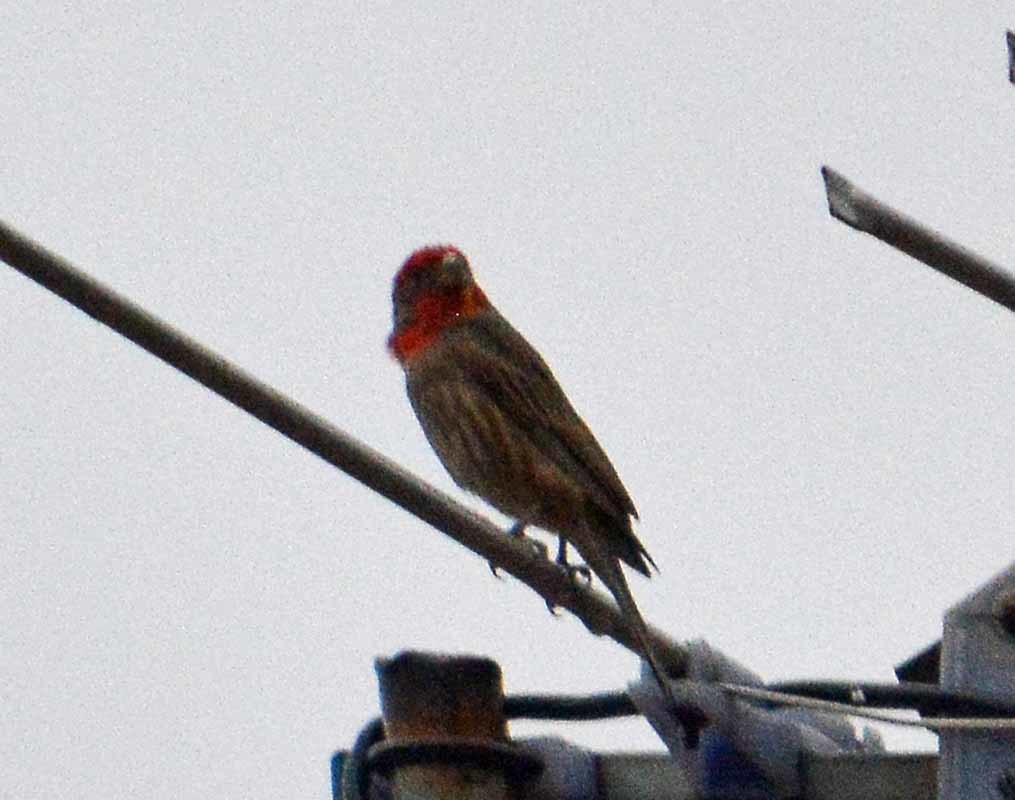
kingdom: Animalia
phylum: Chordata
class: Aves
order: Passeriformes
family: Fringillidae
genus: Haemorhous
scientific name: Haemorhous mexicanus
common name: House finch
